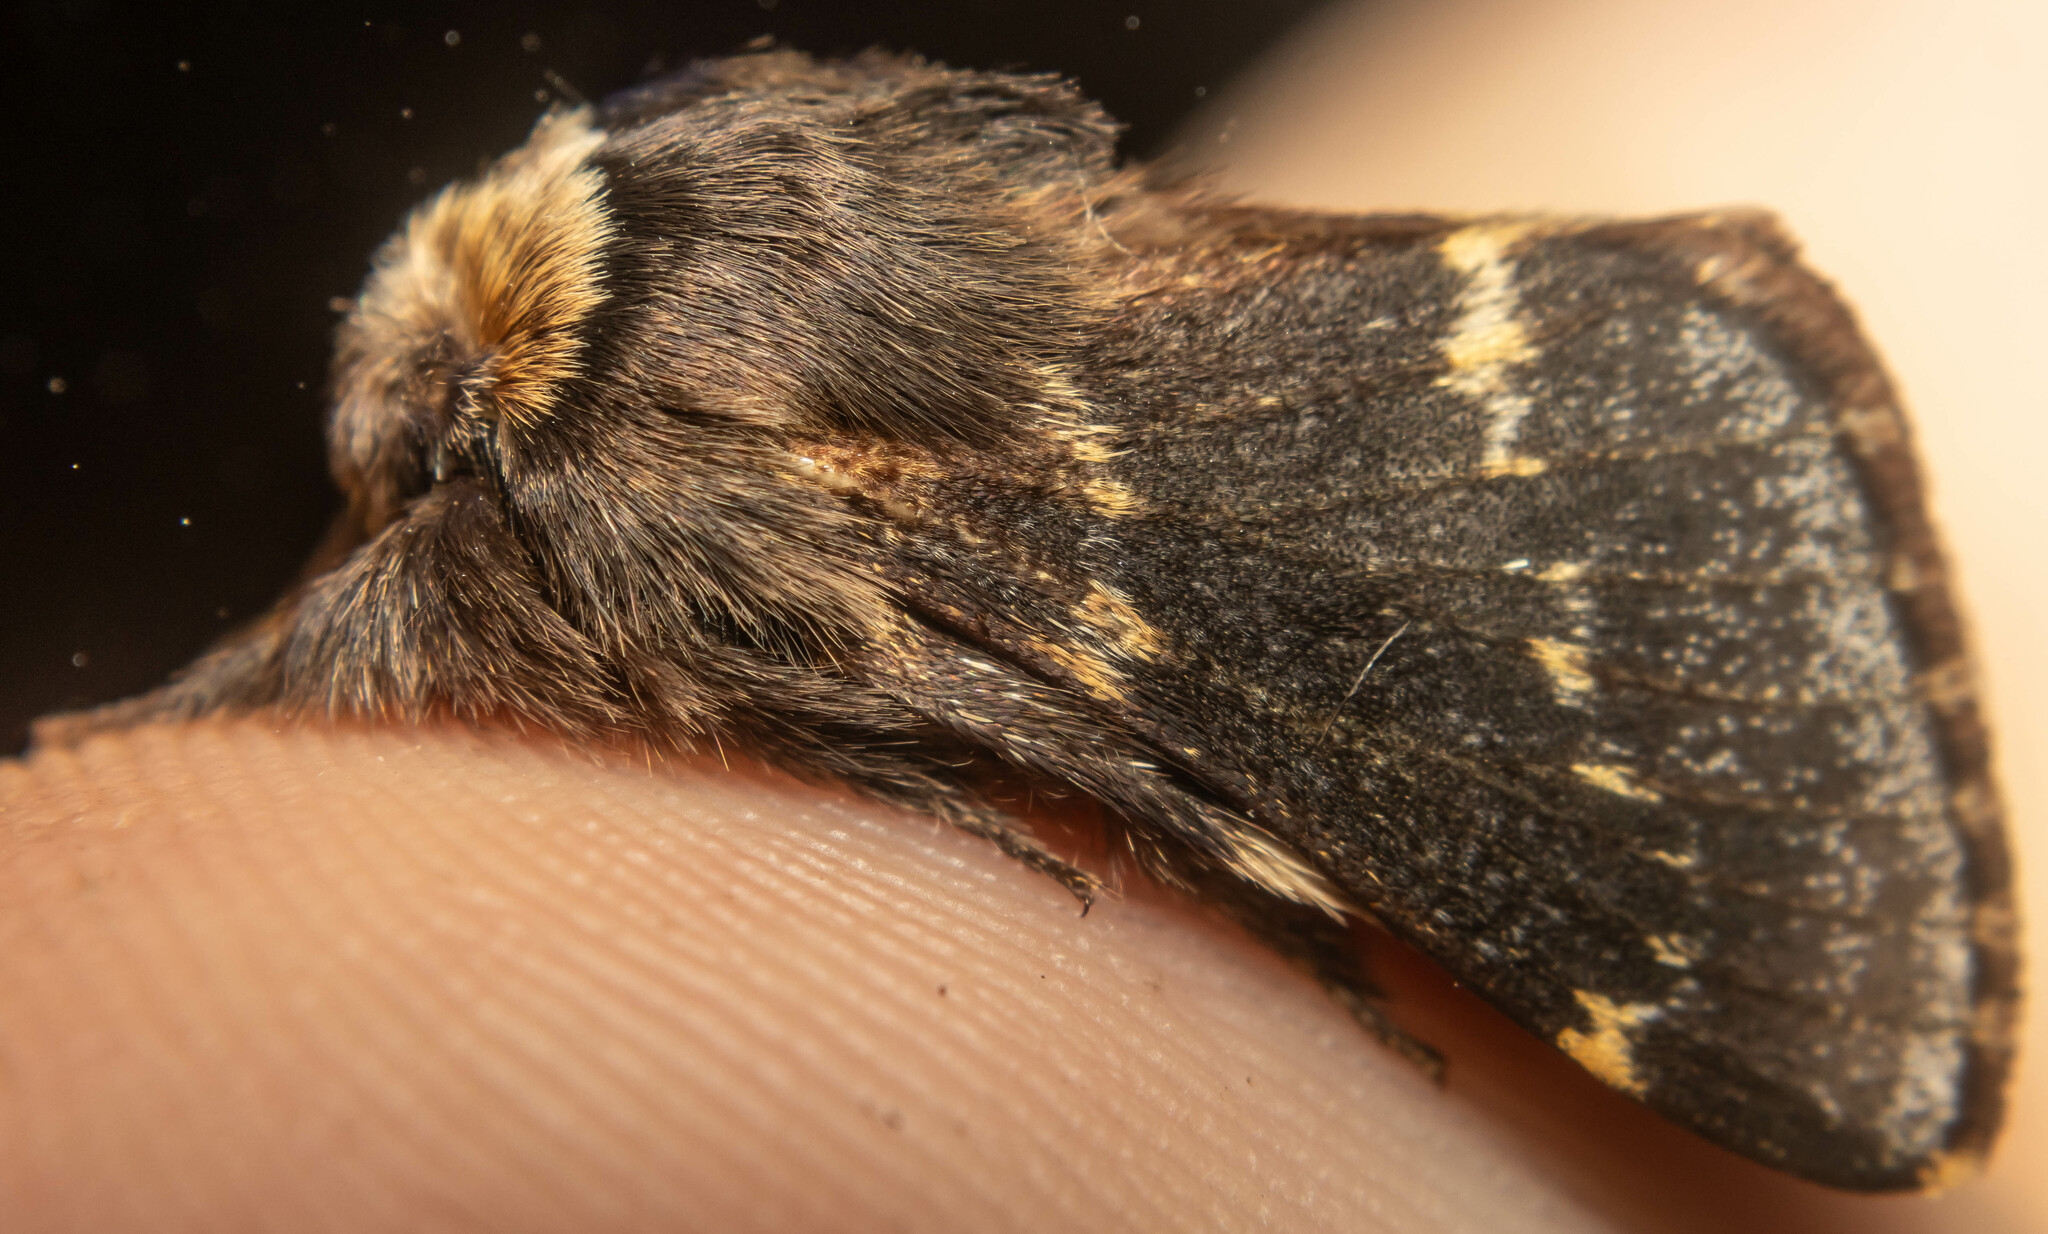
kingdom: Animalia
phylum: Arthropoda
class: Insecta
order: Lepidoptera
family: Lasiocampidae
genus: Poecilocampa
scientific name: Poecilocampa populi
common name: December moth
